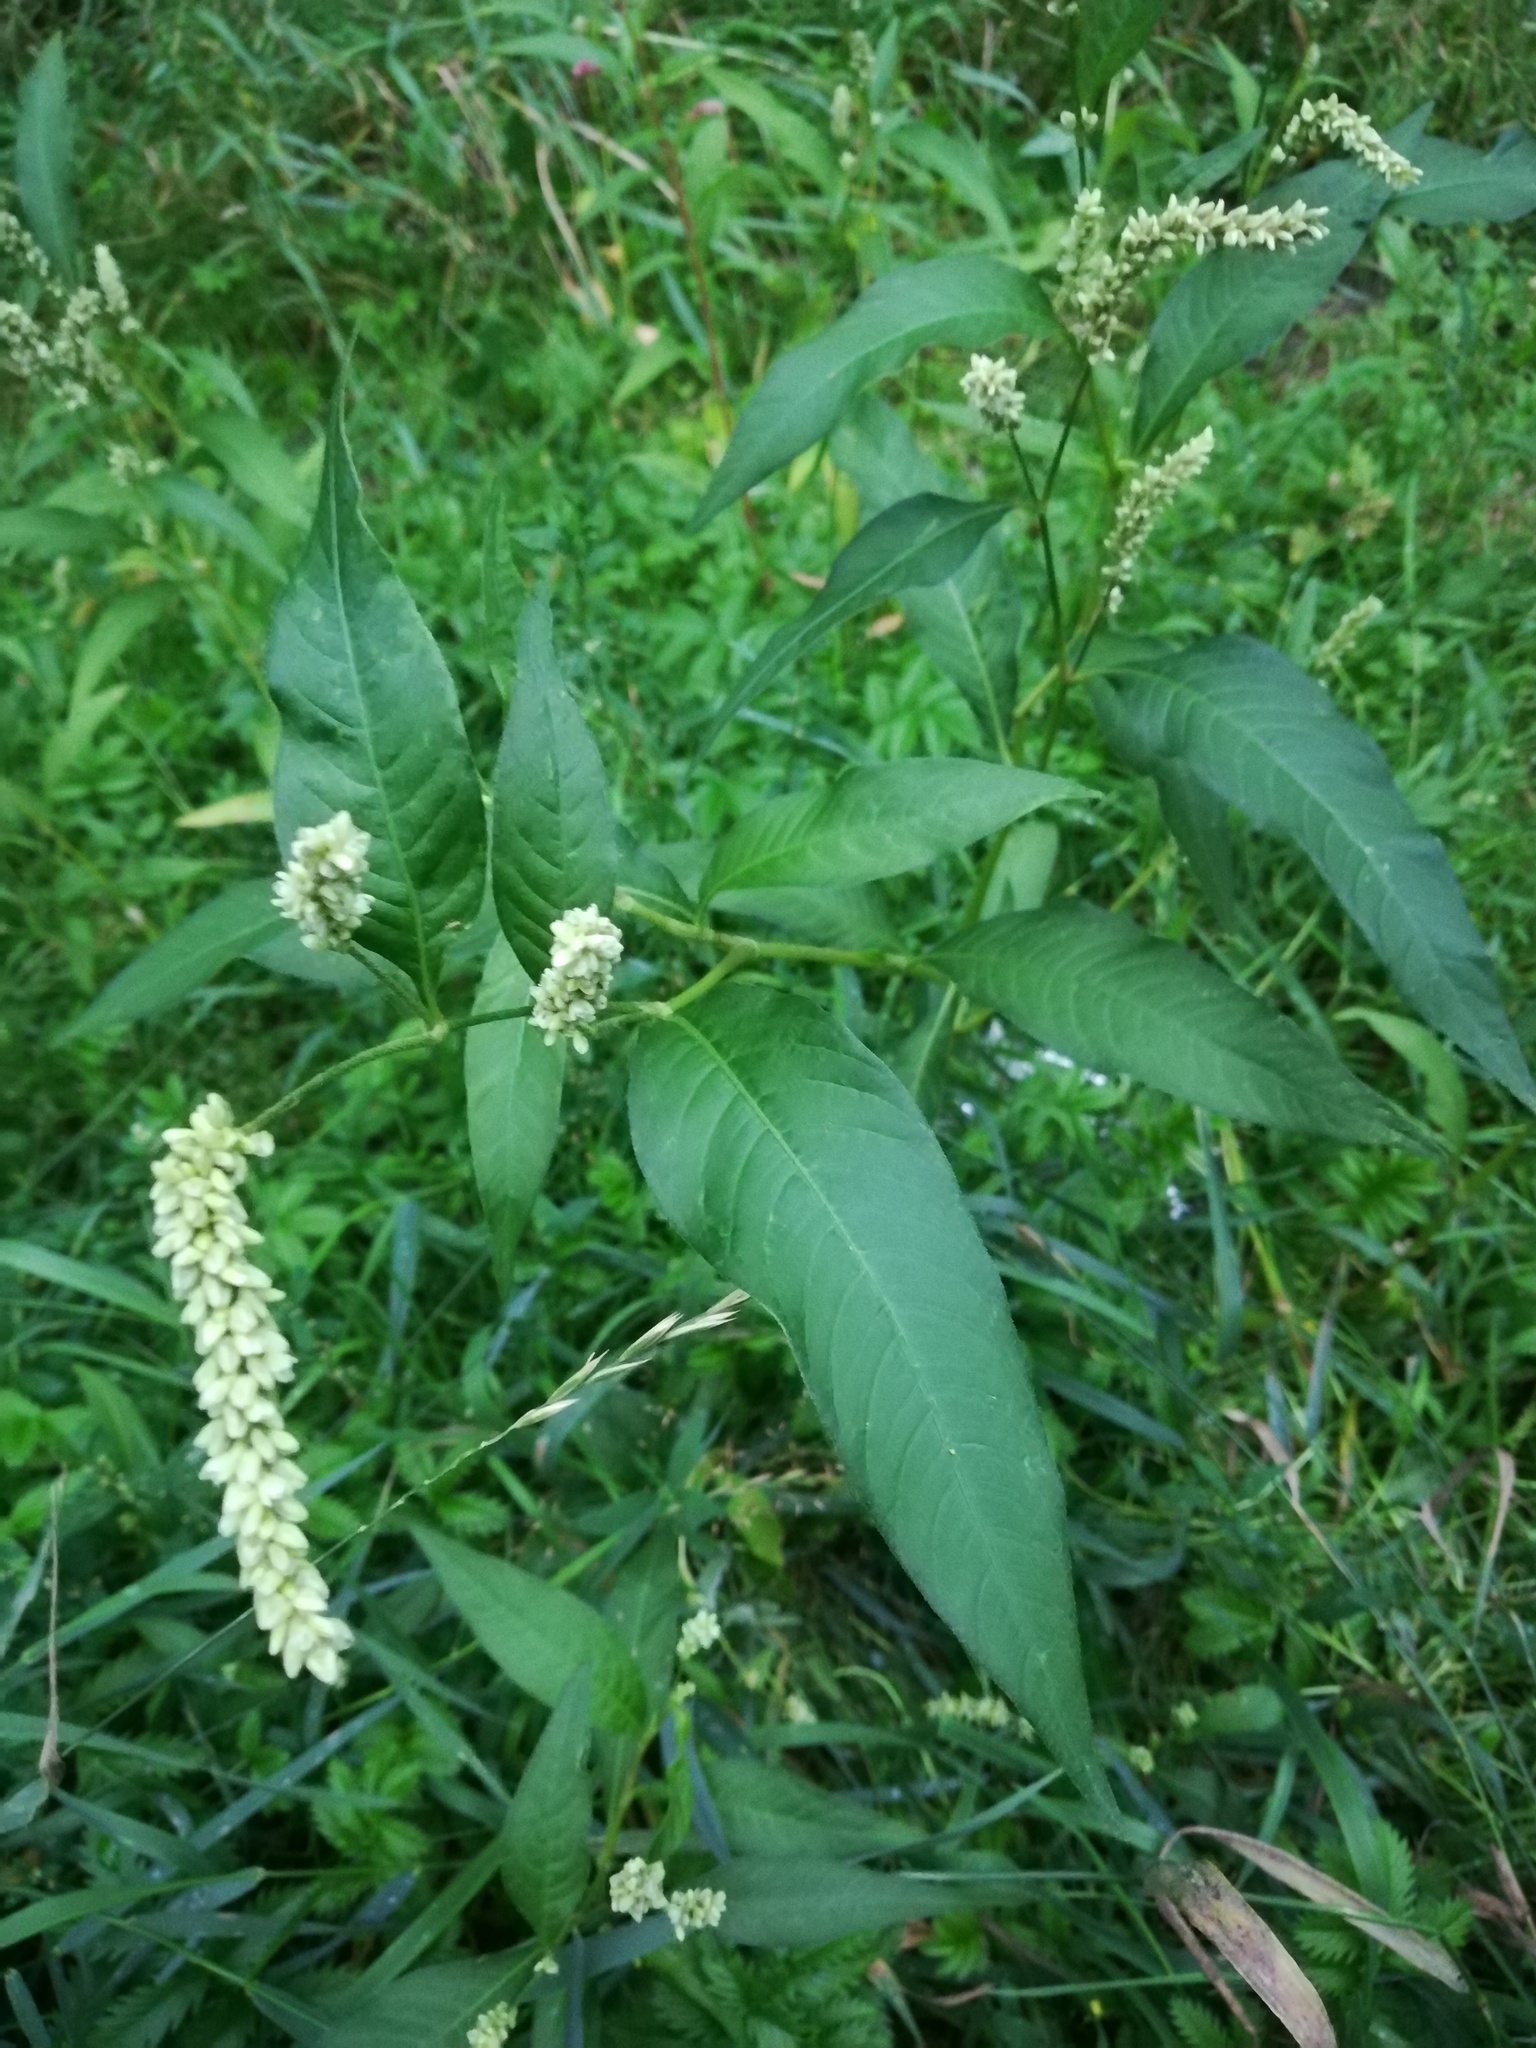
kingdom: Plantae
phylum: Tracheophyta
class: Magnoliopsida
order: Caryophyllales
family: Polygonaceae
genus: Persicaria
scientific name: Persicaria lapathifolia
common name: Curlytop knotweed
